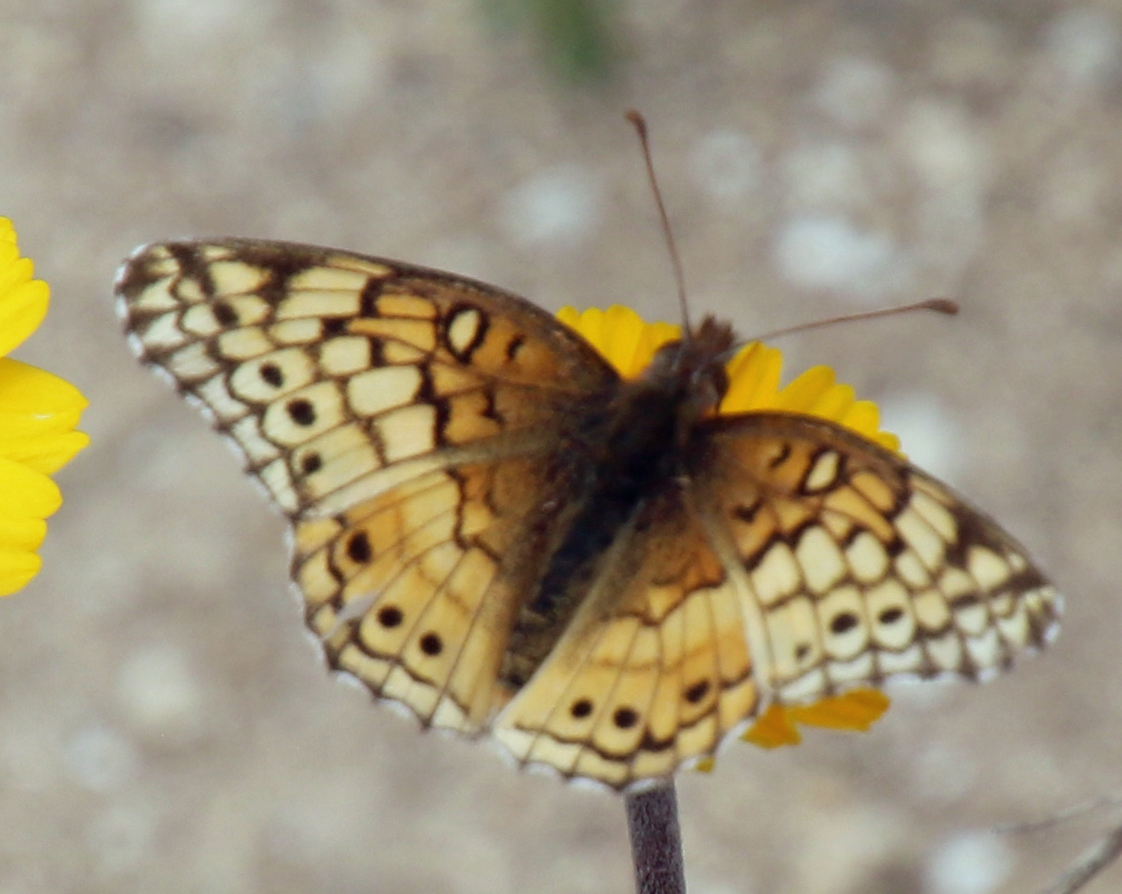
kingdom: Animalia
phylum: Arthropoda
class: Insecta
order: Lepidoptera
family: Nymphalidae
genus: Euptoieta
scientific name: Euptoieta claudia
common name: Variegated fritillary
